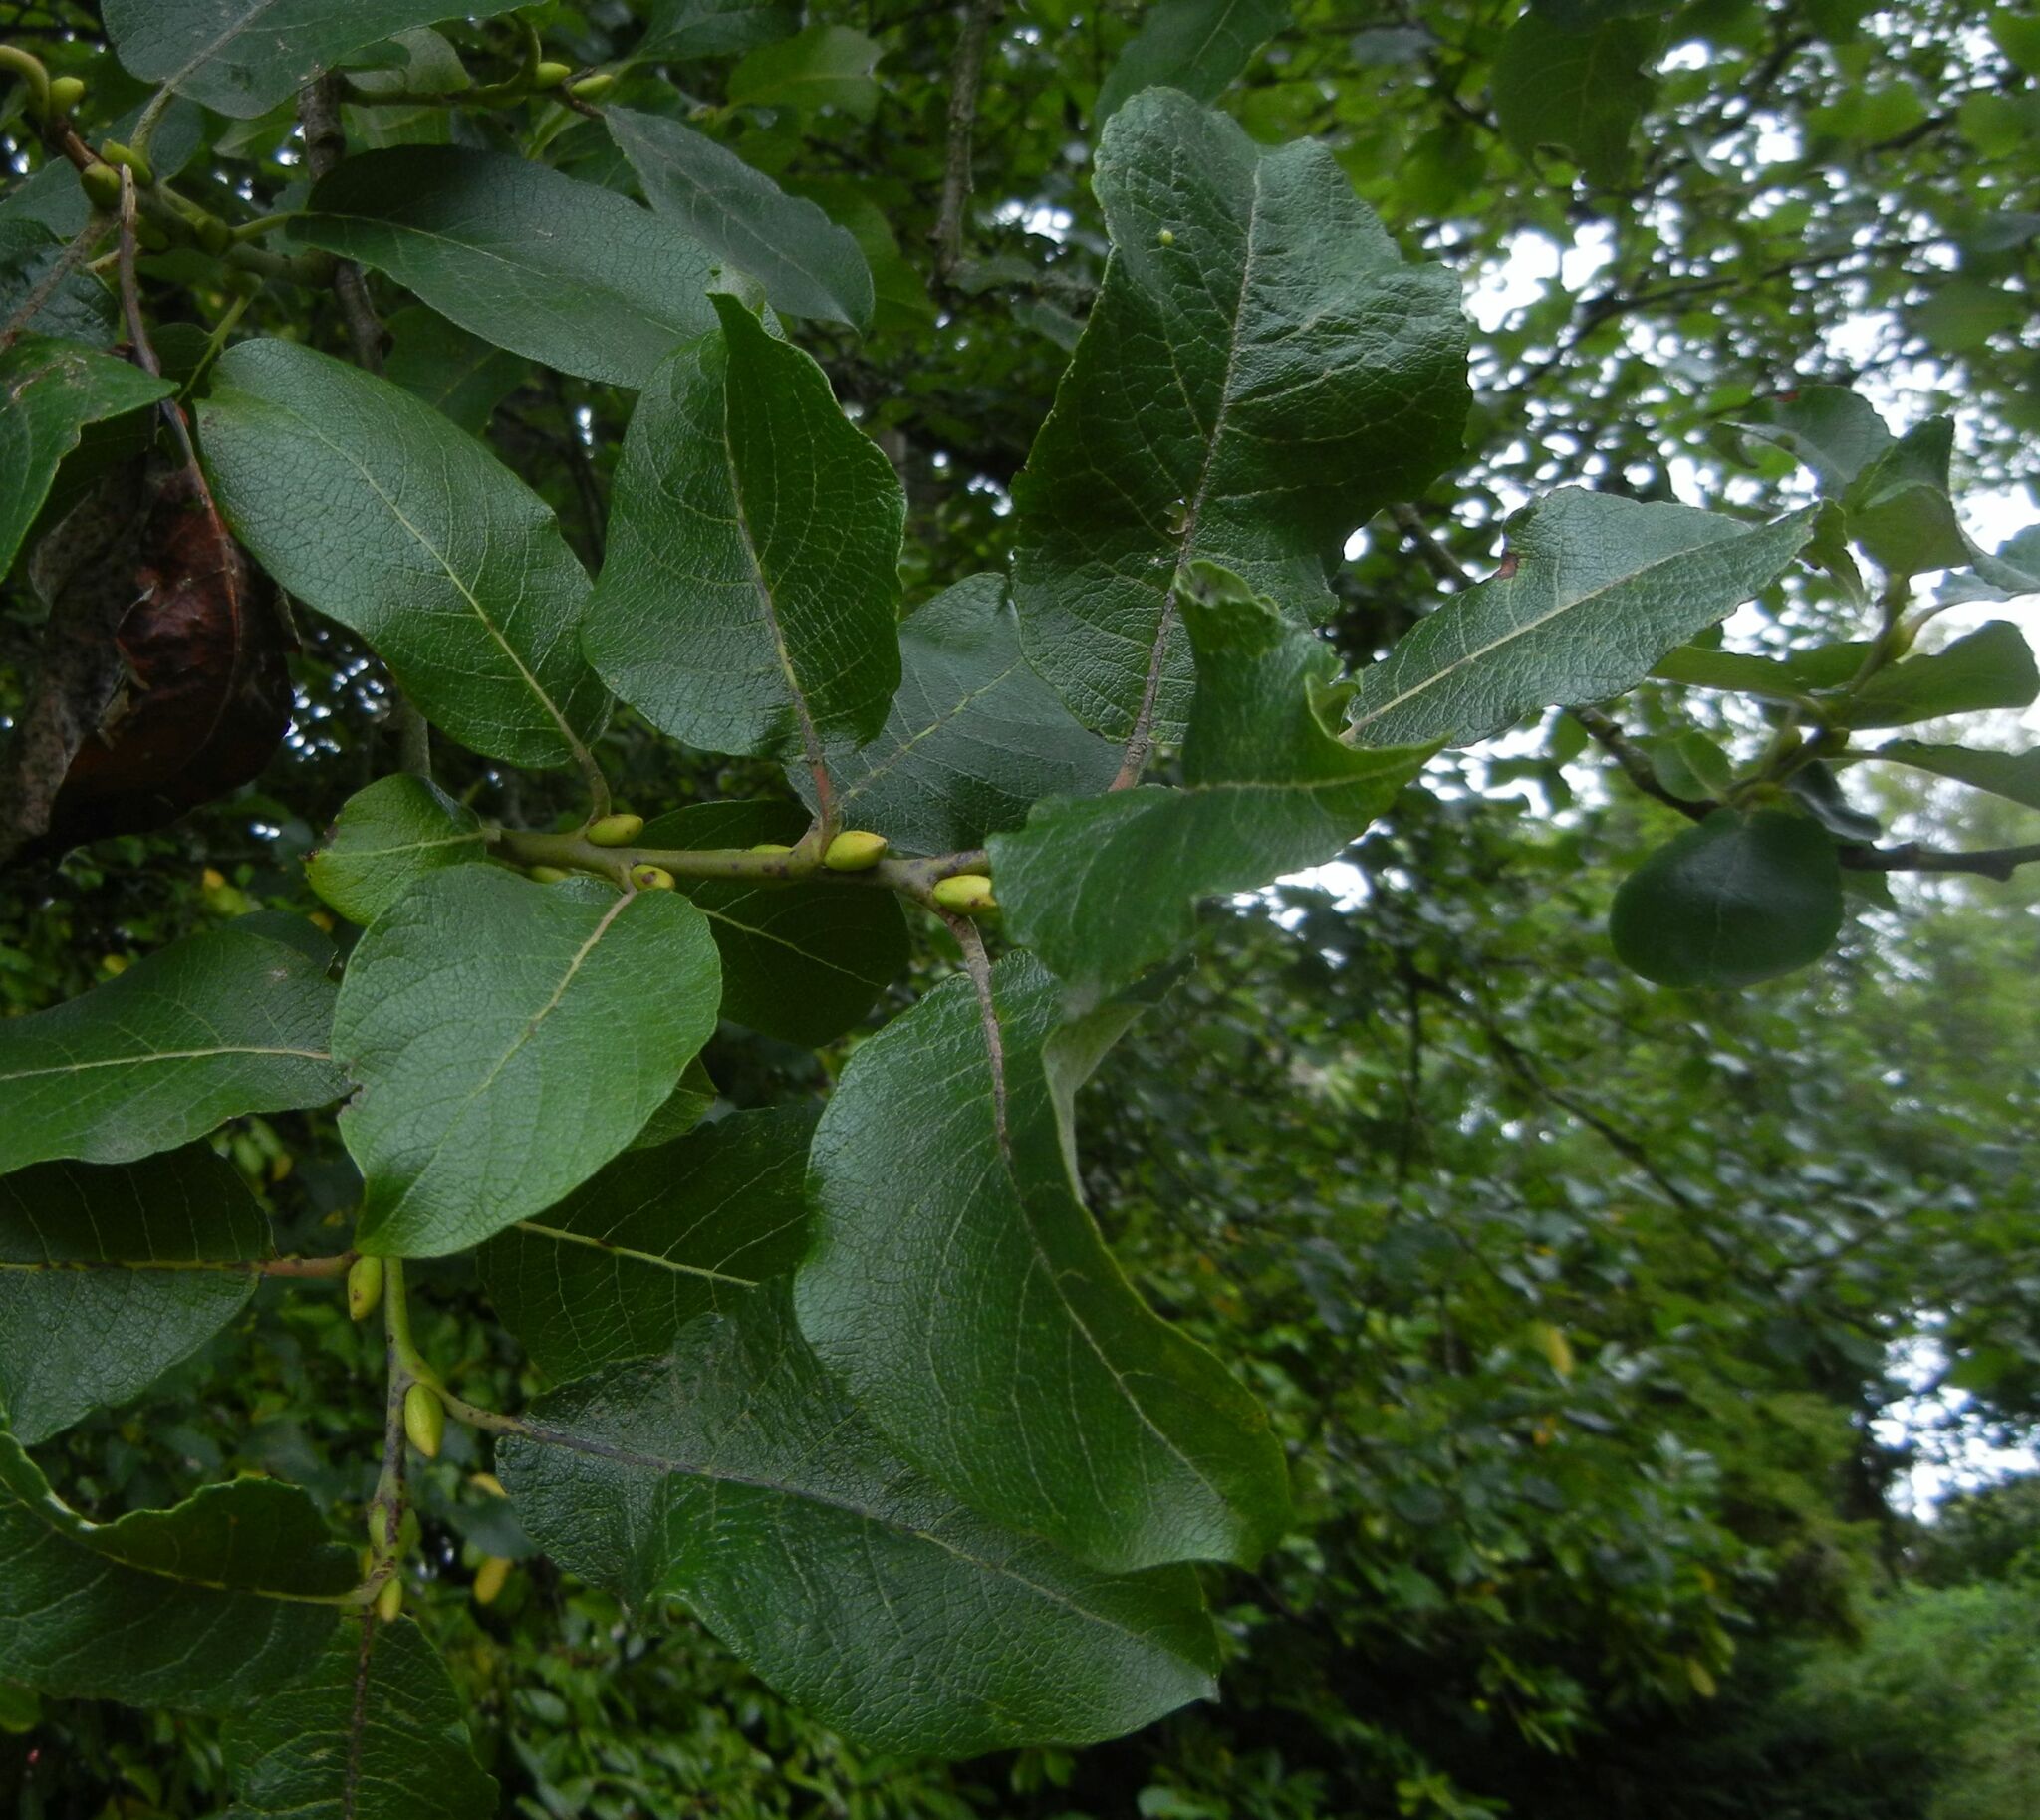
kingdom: Plantae
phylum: Tracheophyta
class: Magnoliopsida
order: Malpighiales
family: Salicaceae
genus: Salix
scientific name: Salix caprea
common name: Goat willow
